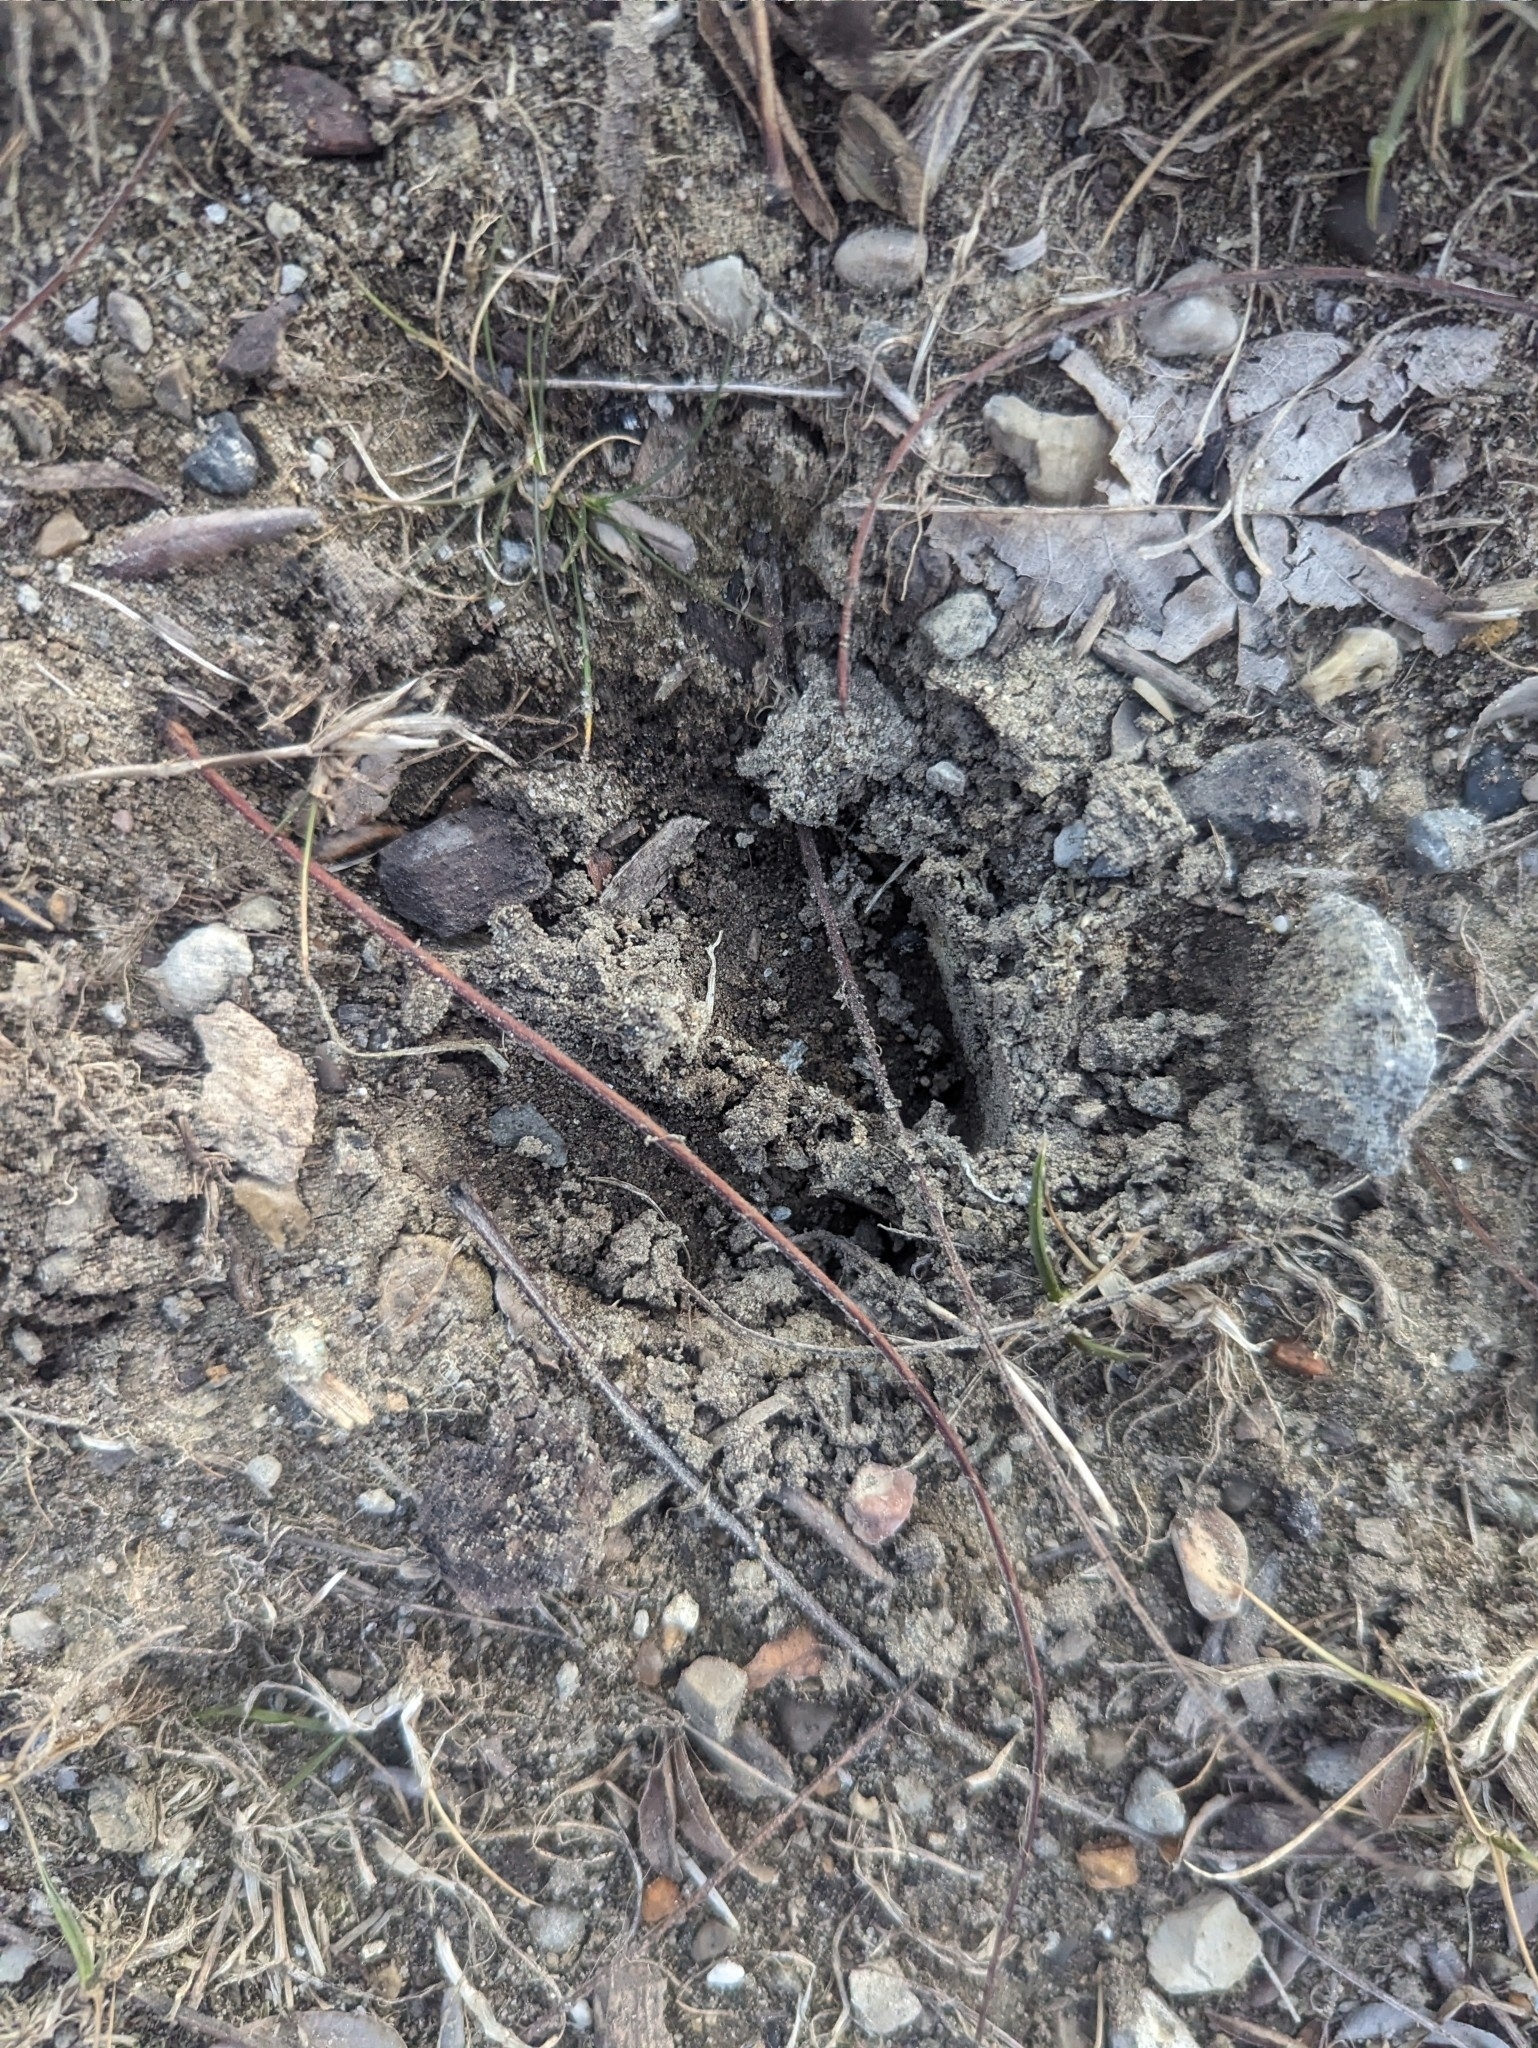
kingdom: Animalia
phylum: Chordata
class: Mammalia
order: Artiodactyla
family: Cervidae
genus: Odocoileus
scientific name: Odocoileus virginianus
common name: White-tailed deer
